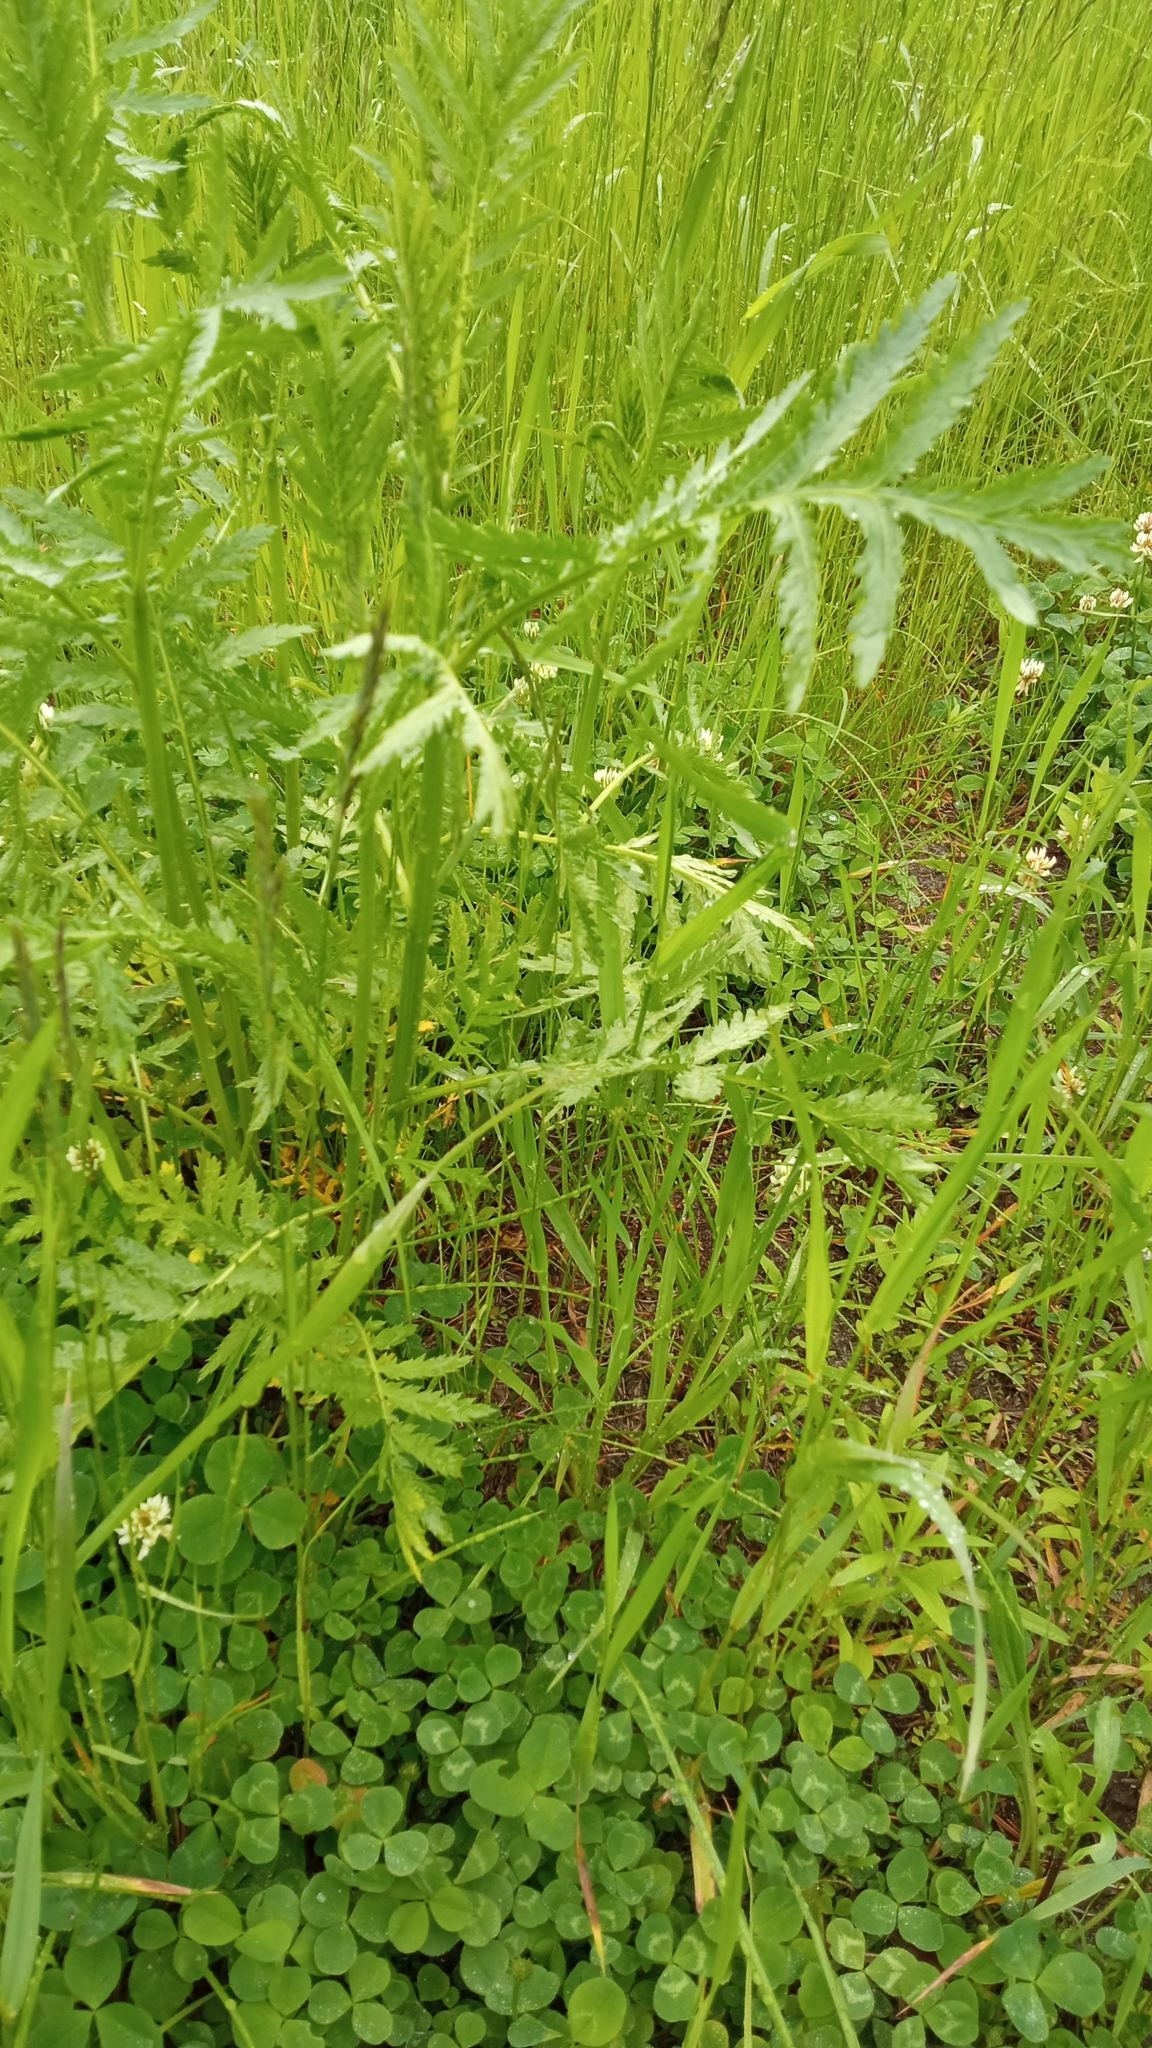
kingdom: Plantae
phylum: Tracheophyta
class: Magnoliopsida
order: Asterales
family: Asteraceae
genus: Tanacetum
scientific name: Tanacetum vulgare
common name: Common tansy
